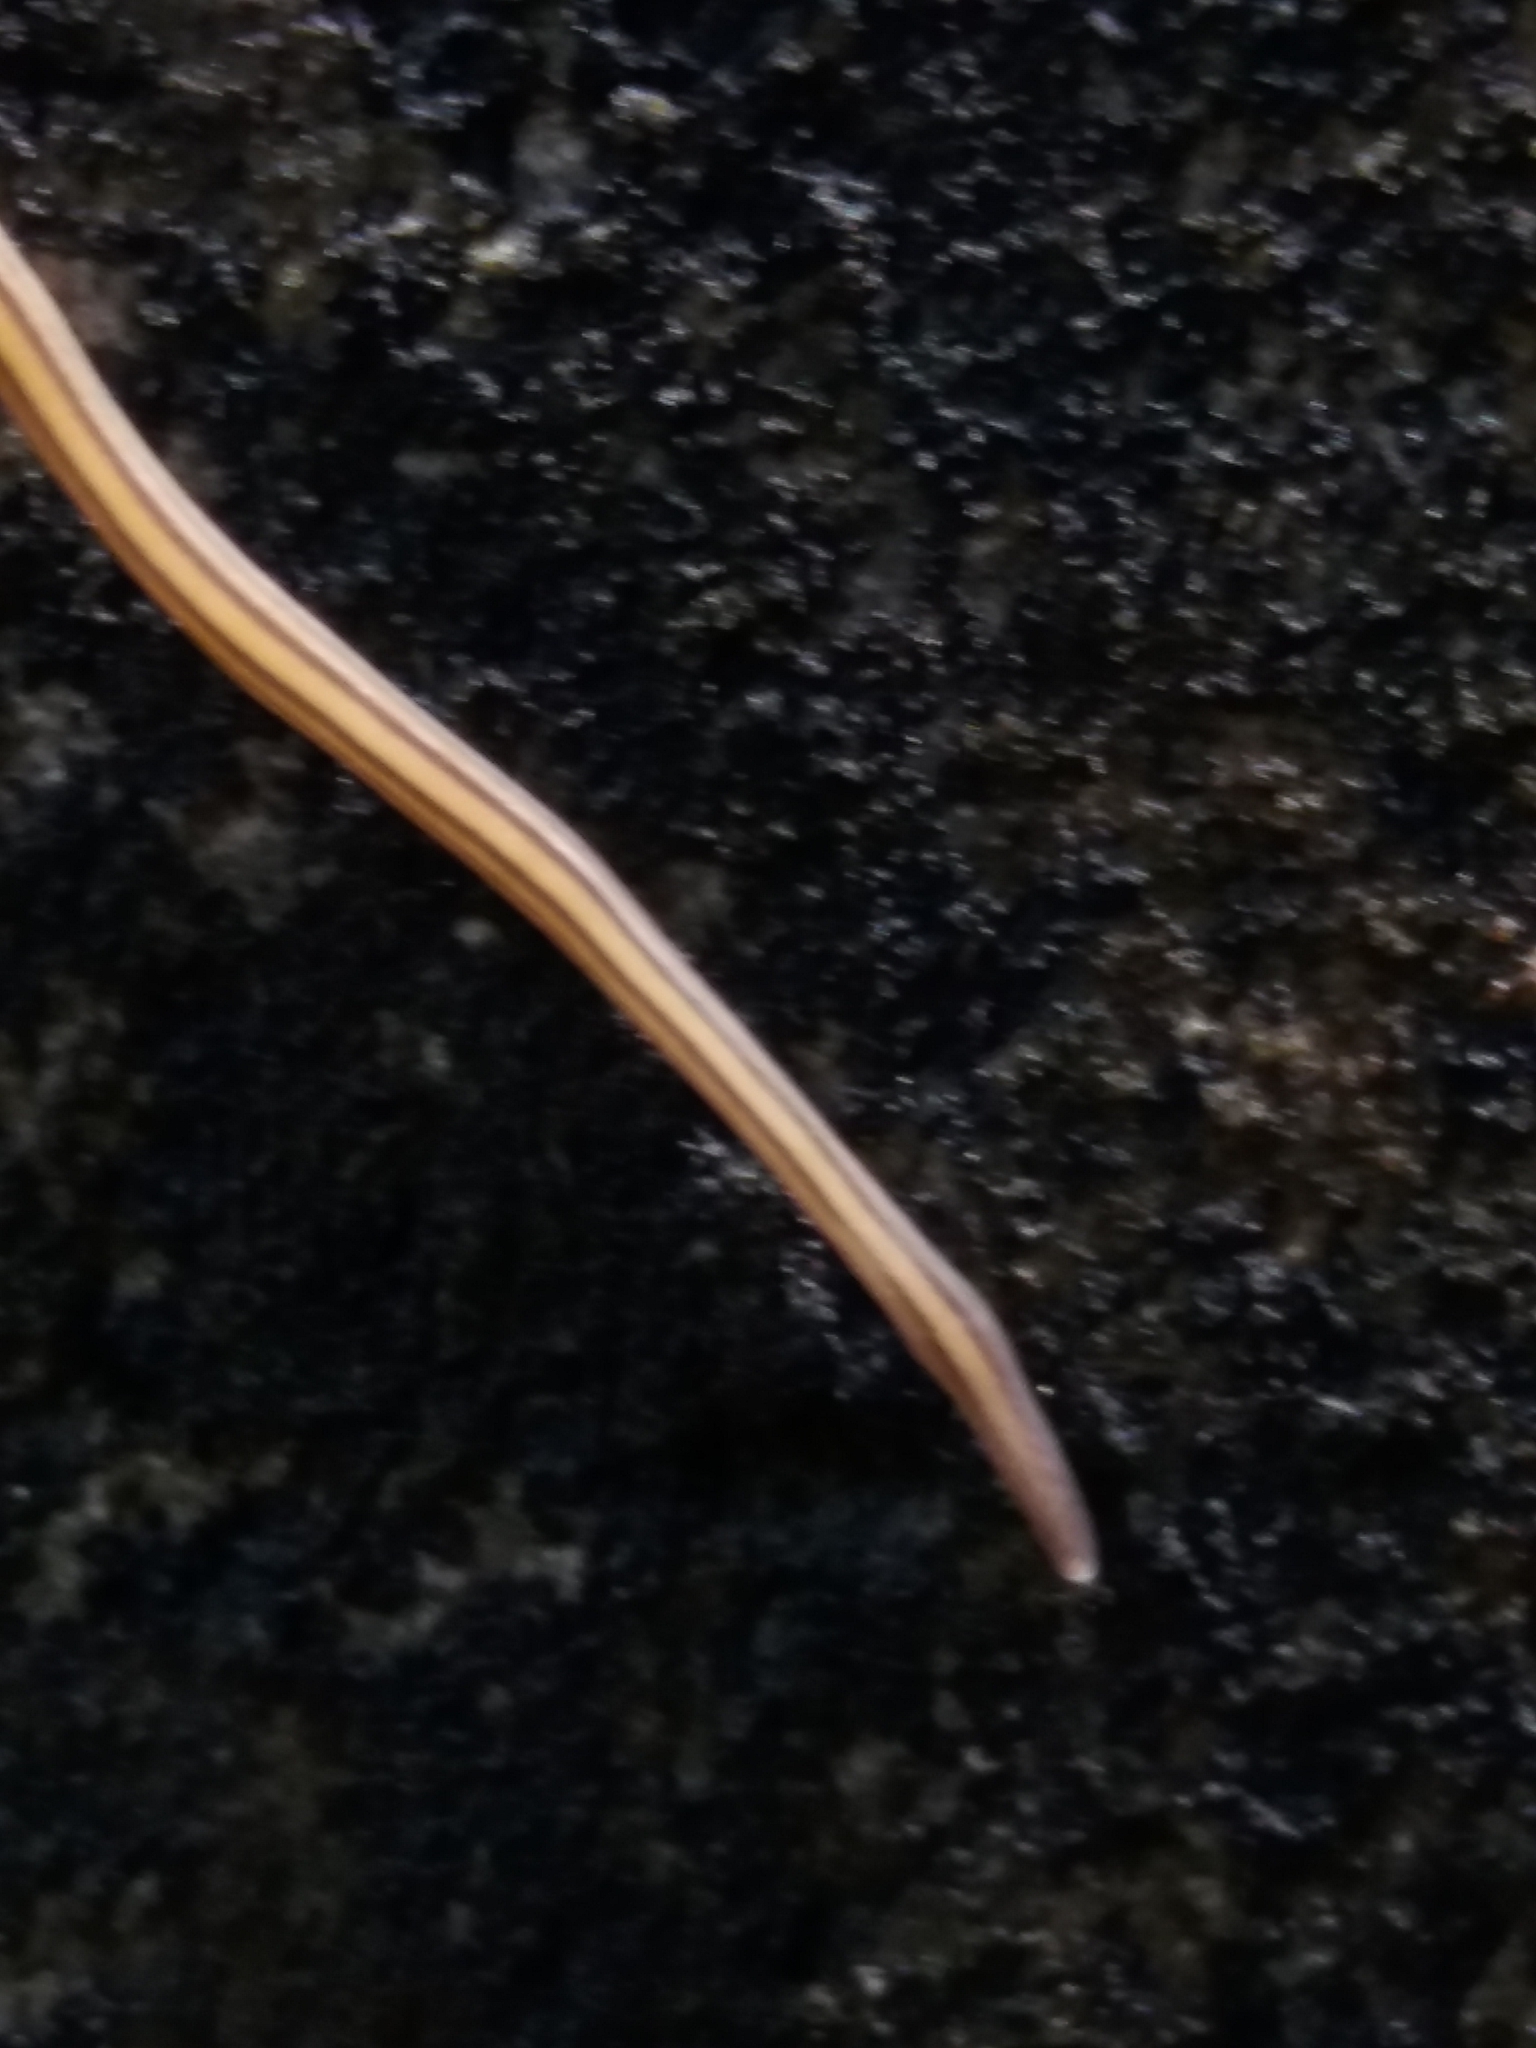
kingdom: Animalia
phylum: Platyhelminthes
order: Tricladida
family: Geoplanidae
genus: Dolichoplana
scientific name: Dolichoplana striata
